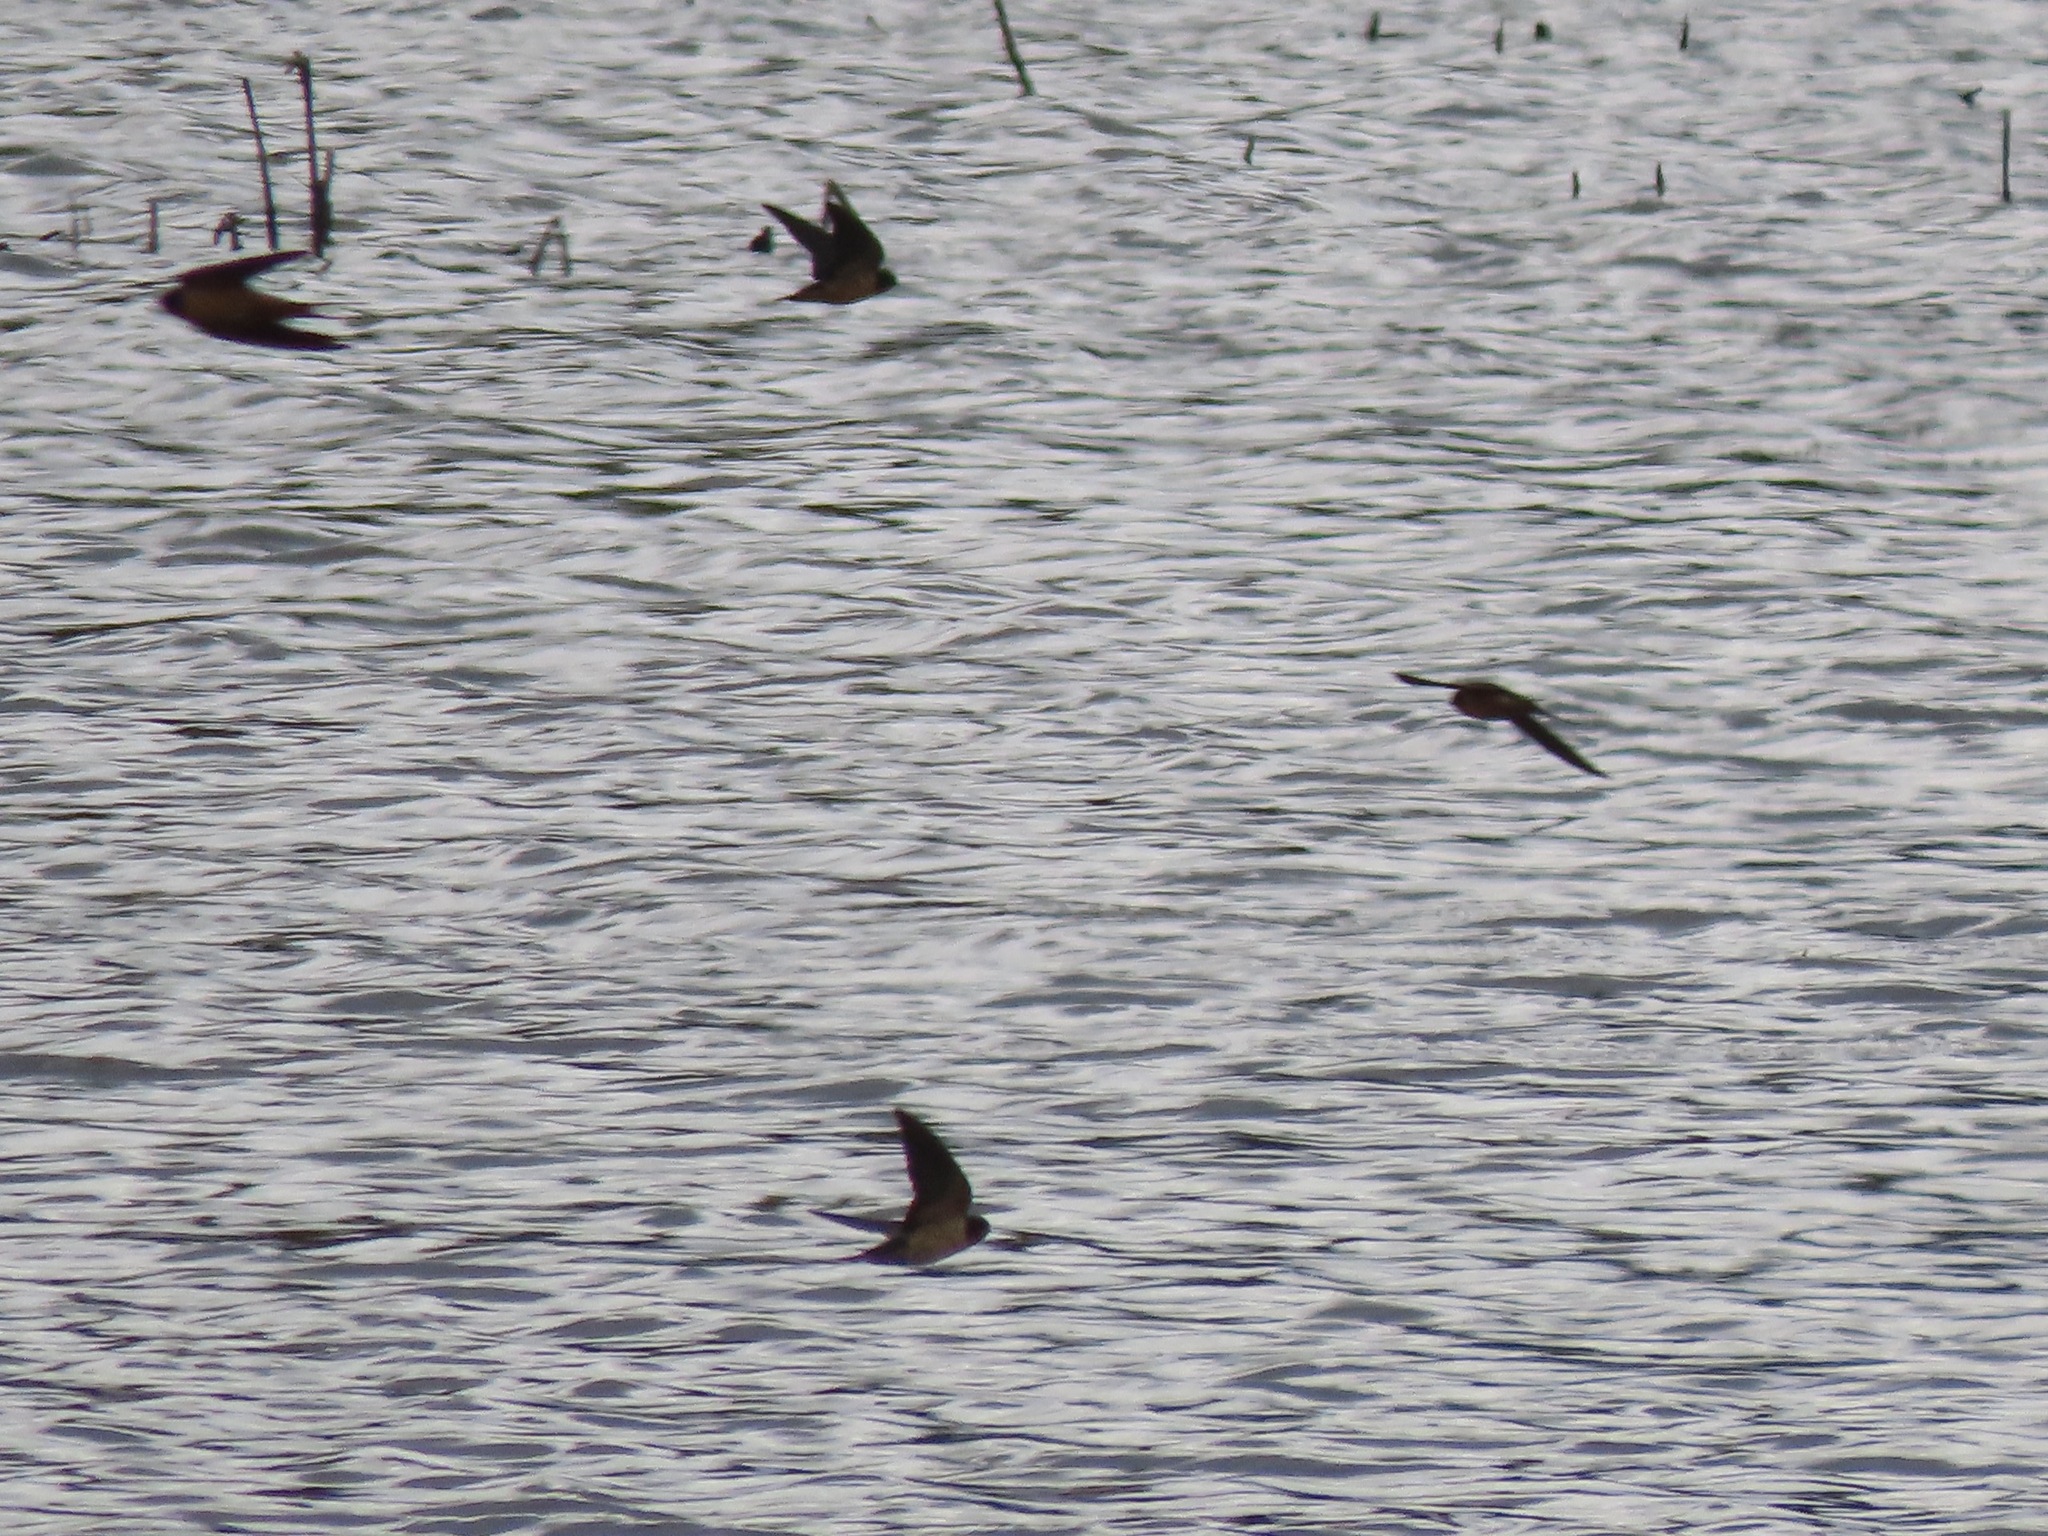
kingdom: Animalia
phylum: Chordata
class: Aves
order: Passeriformes
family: Hirundinidae
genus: Hirundo
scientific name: Hirundo rustica
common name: Barn swallow
